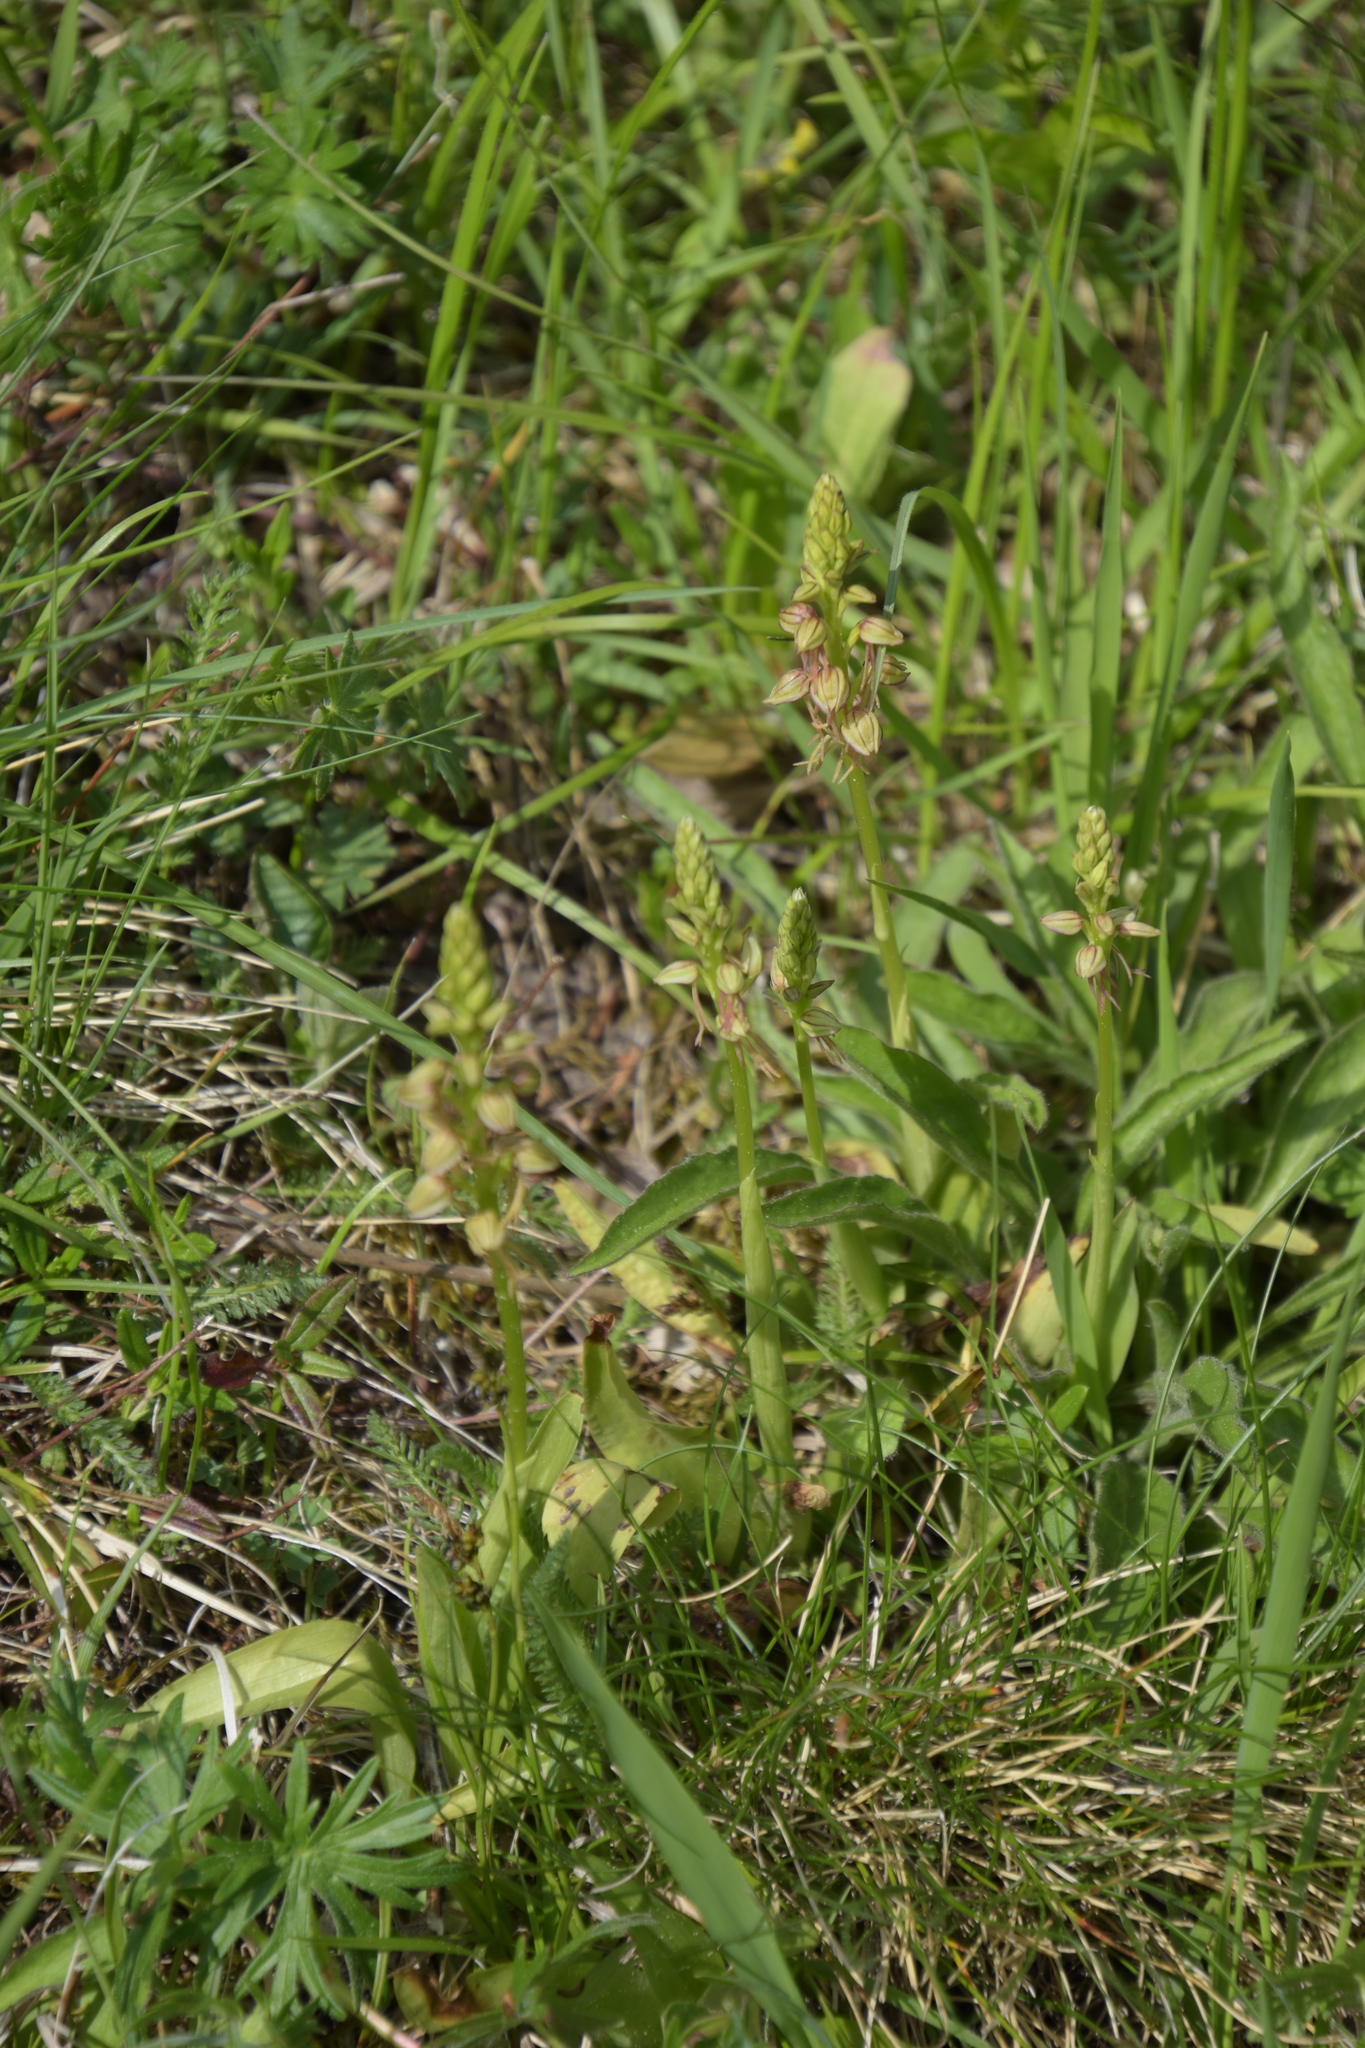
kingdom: Plantae
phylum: Tracheophyta
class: Liliopsida
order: Asparagales
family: Orchidaceae
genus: Orchis
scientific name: Orchis anthropophora
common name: Man orchid
